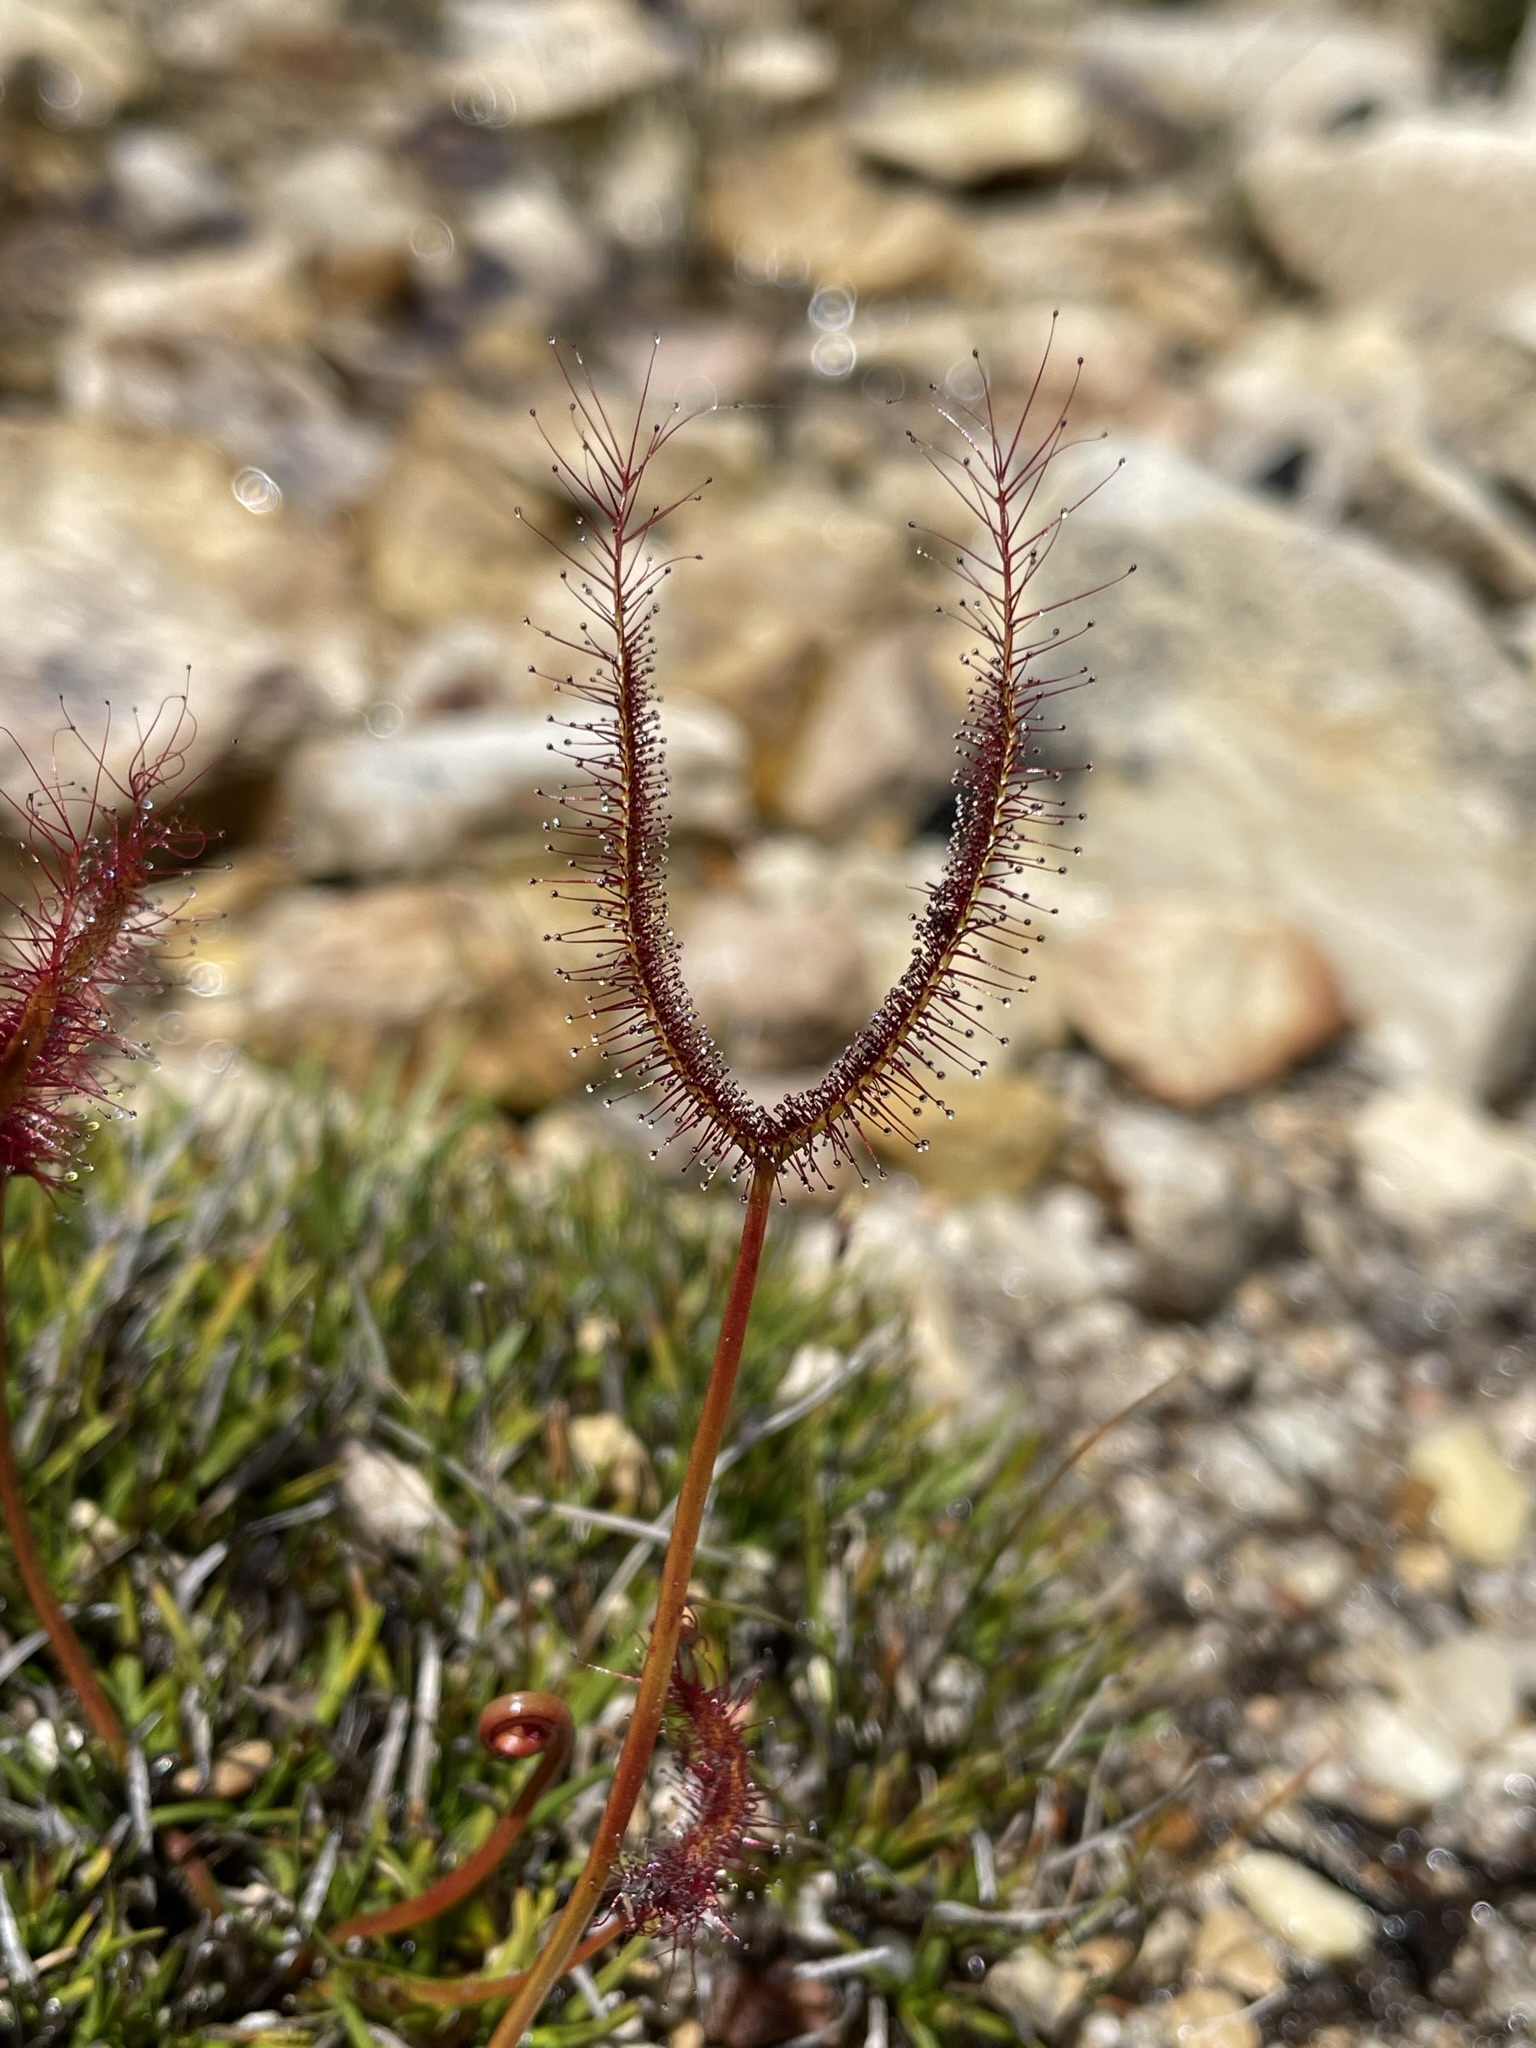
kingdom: Plantae
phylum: Tracheophyta
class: Magnoliopsida
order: Caryophyllales
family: Droseraceae
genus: Drosera
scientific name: Drosera binata
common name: Forked sundew
